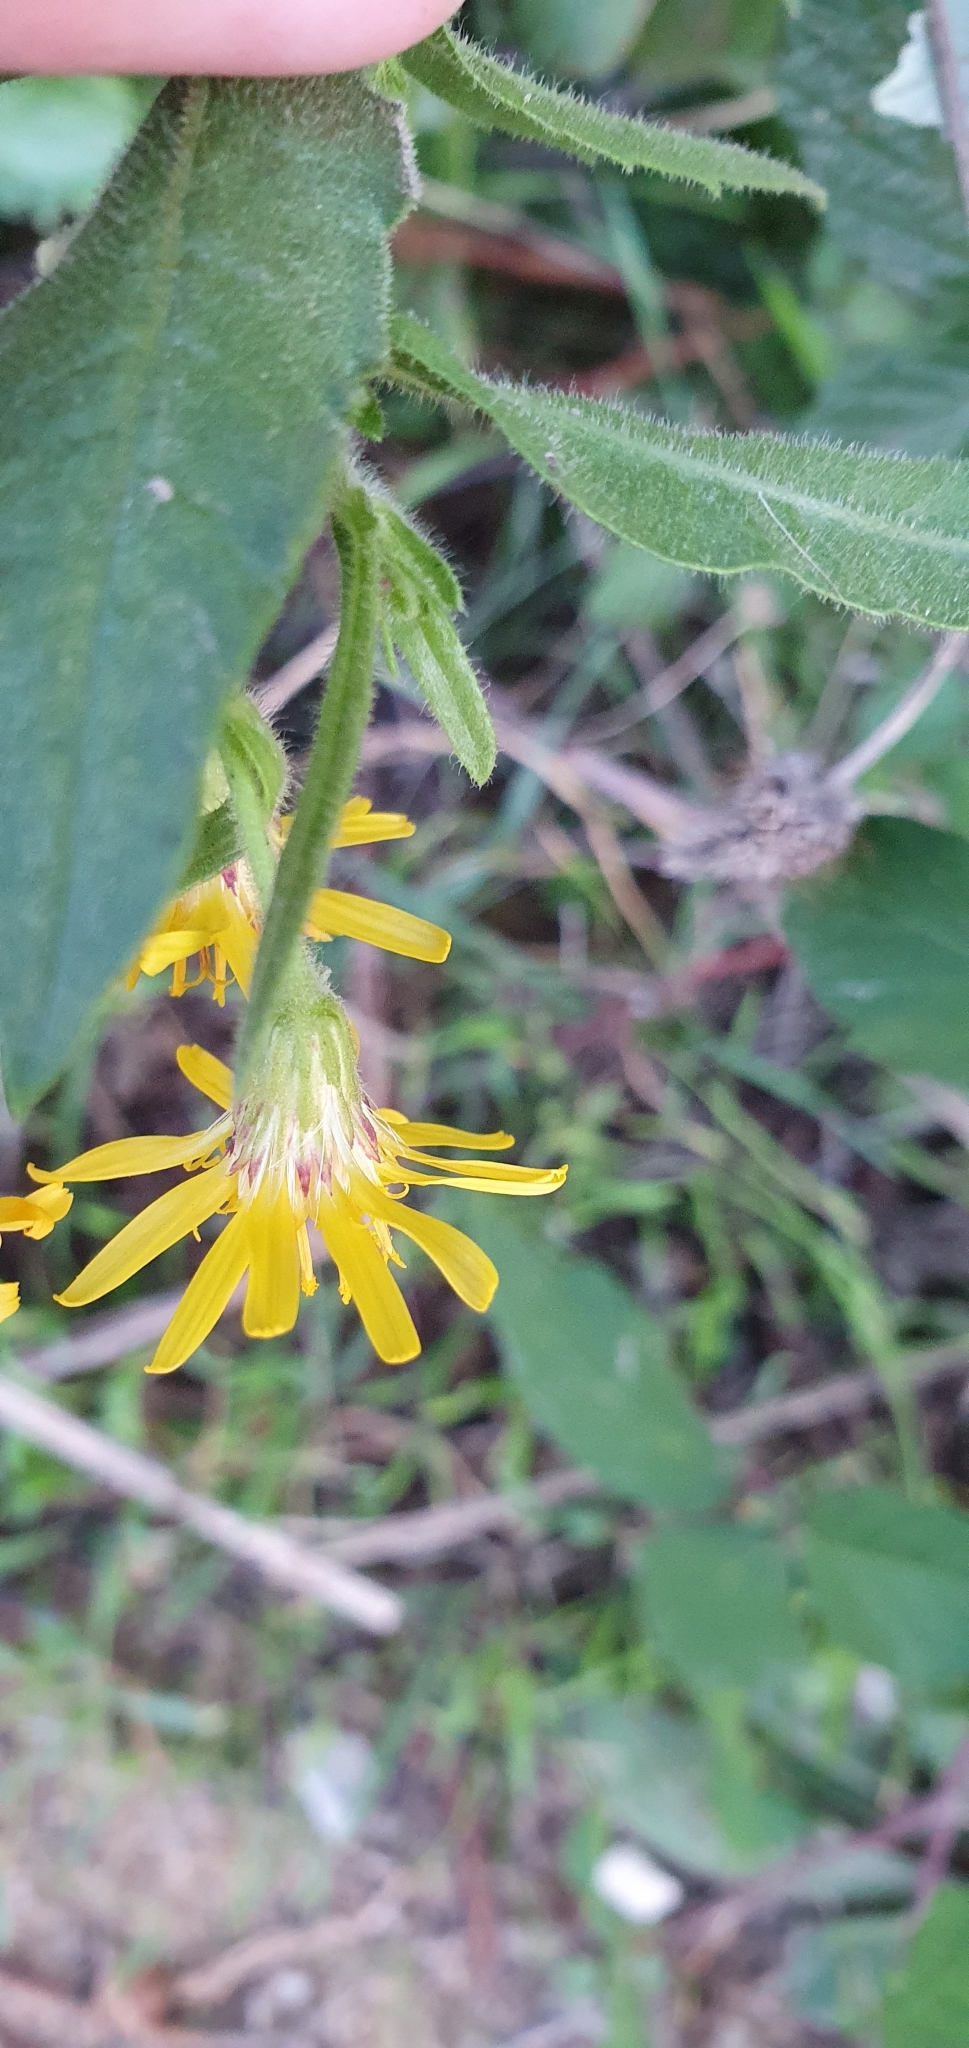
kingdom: Plantae
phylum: Tracheophyta
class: Magnoliopsida
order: Asterales
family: Asteraceae
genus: Dittrichia
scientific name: Dittrichia viscosa
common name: Woody fleabane
